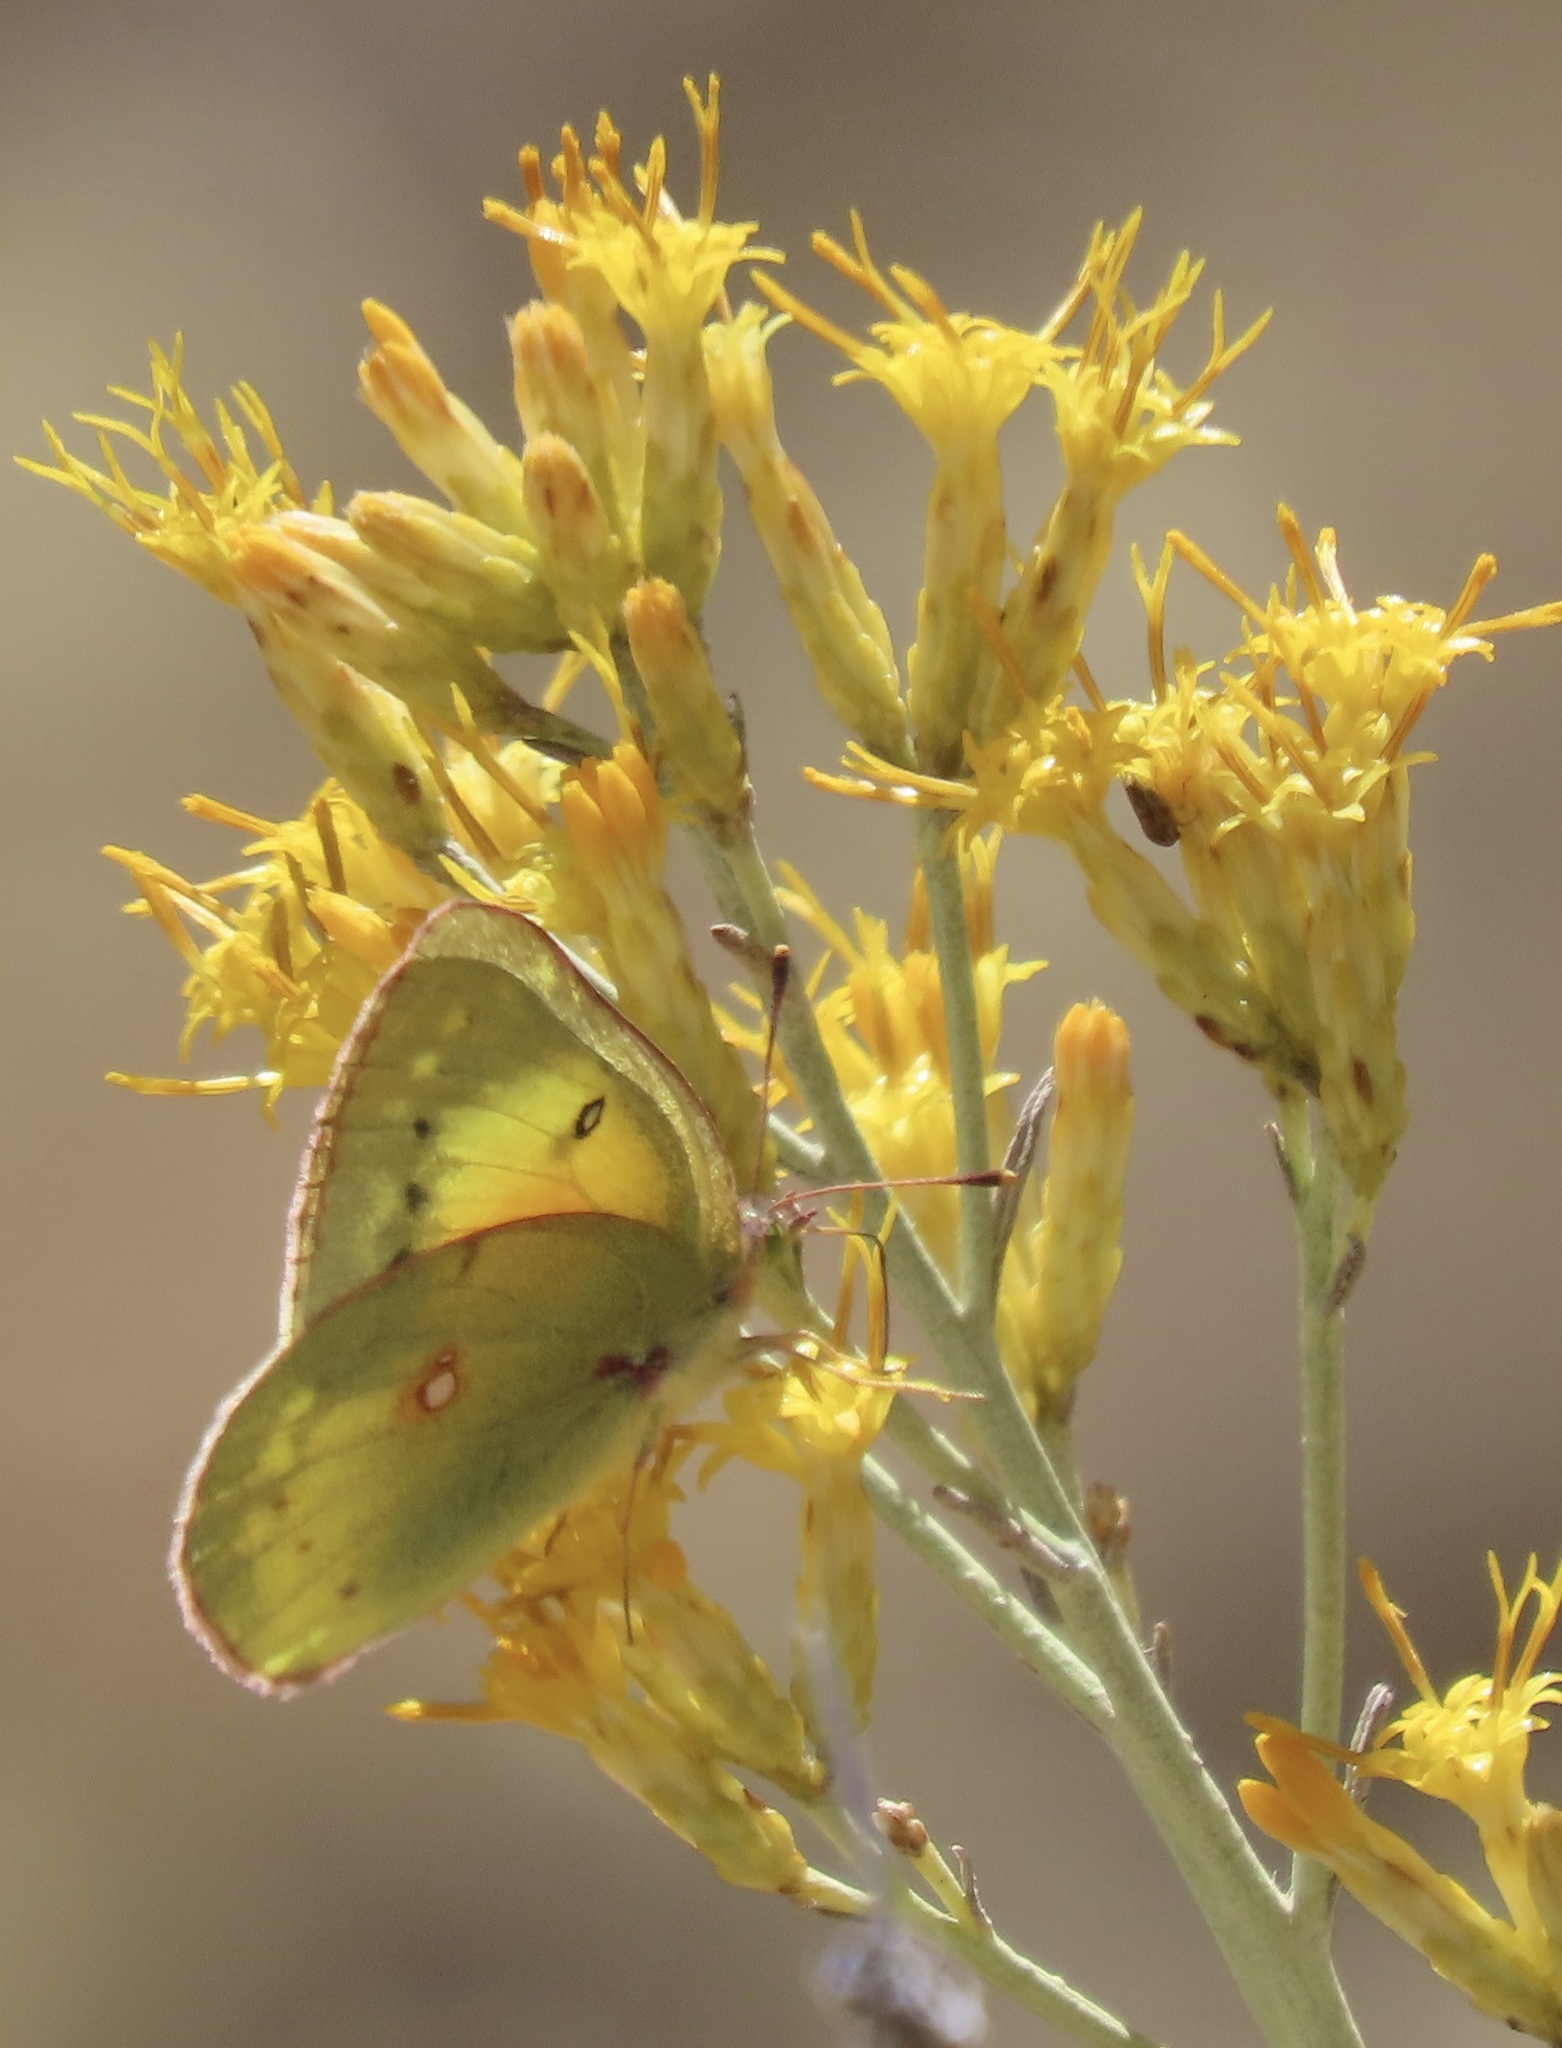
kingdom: Animalia
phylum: Arthropoda
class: Insecta
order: Lepidoptera
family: Pieridae
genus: Colias
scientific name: Colias eurytheme
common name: Alfalfa butterfly
